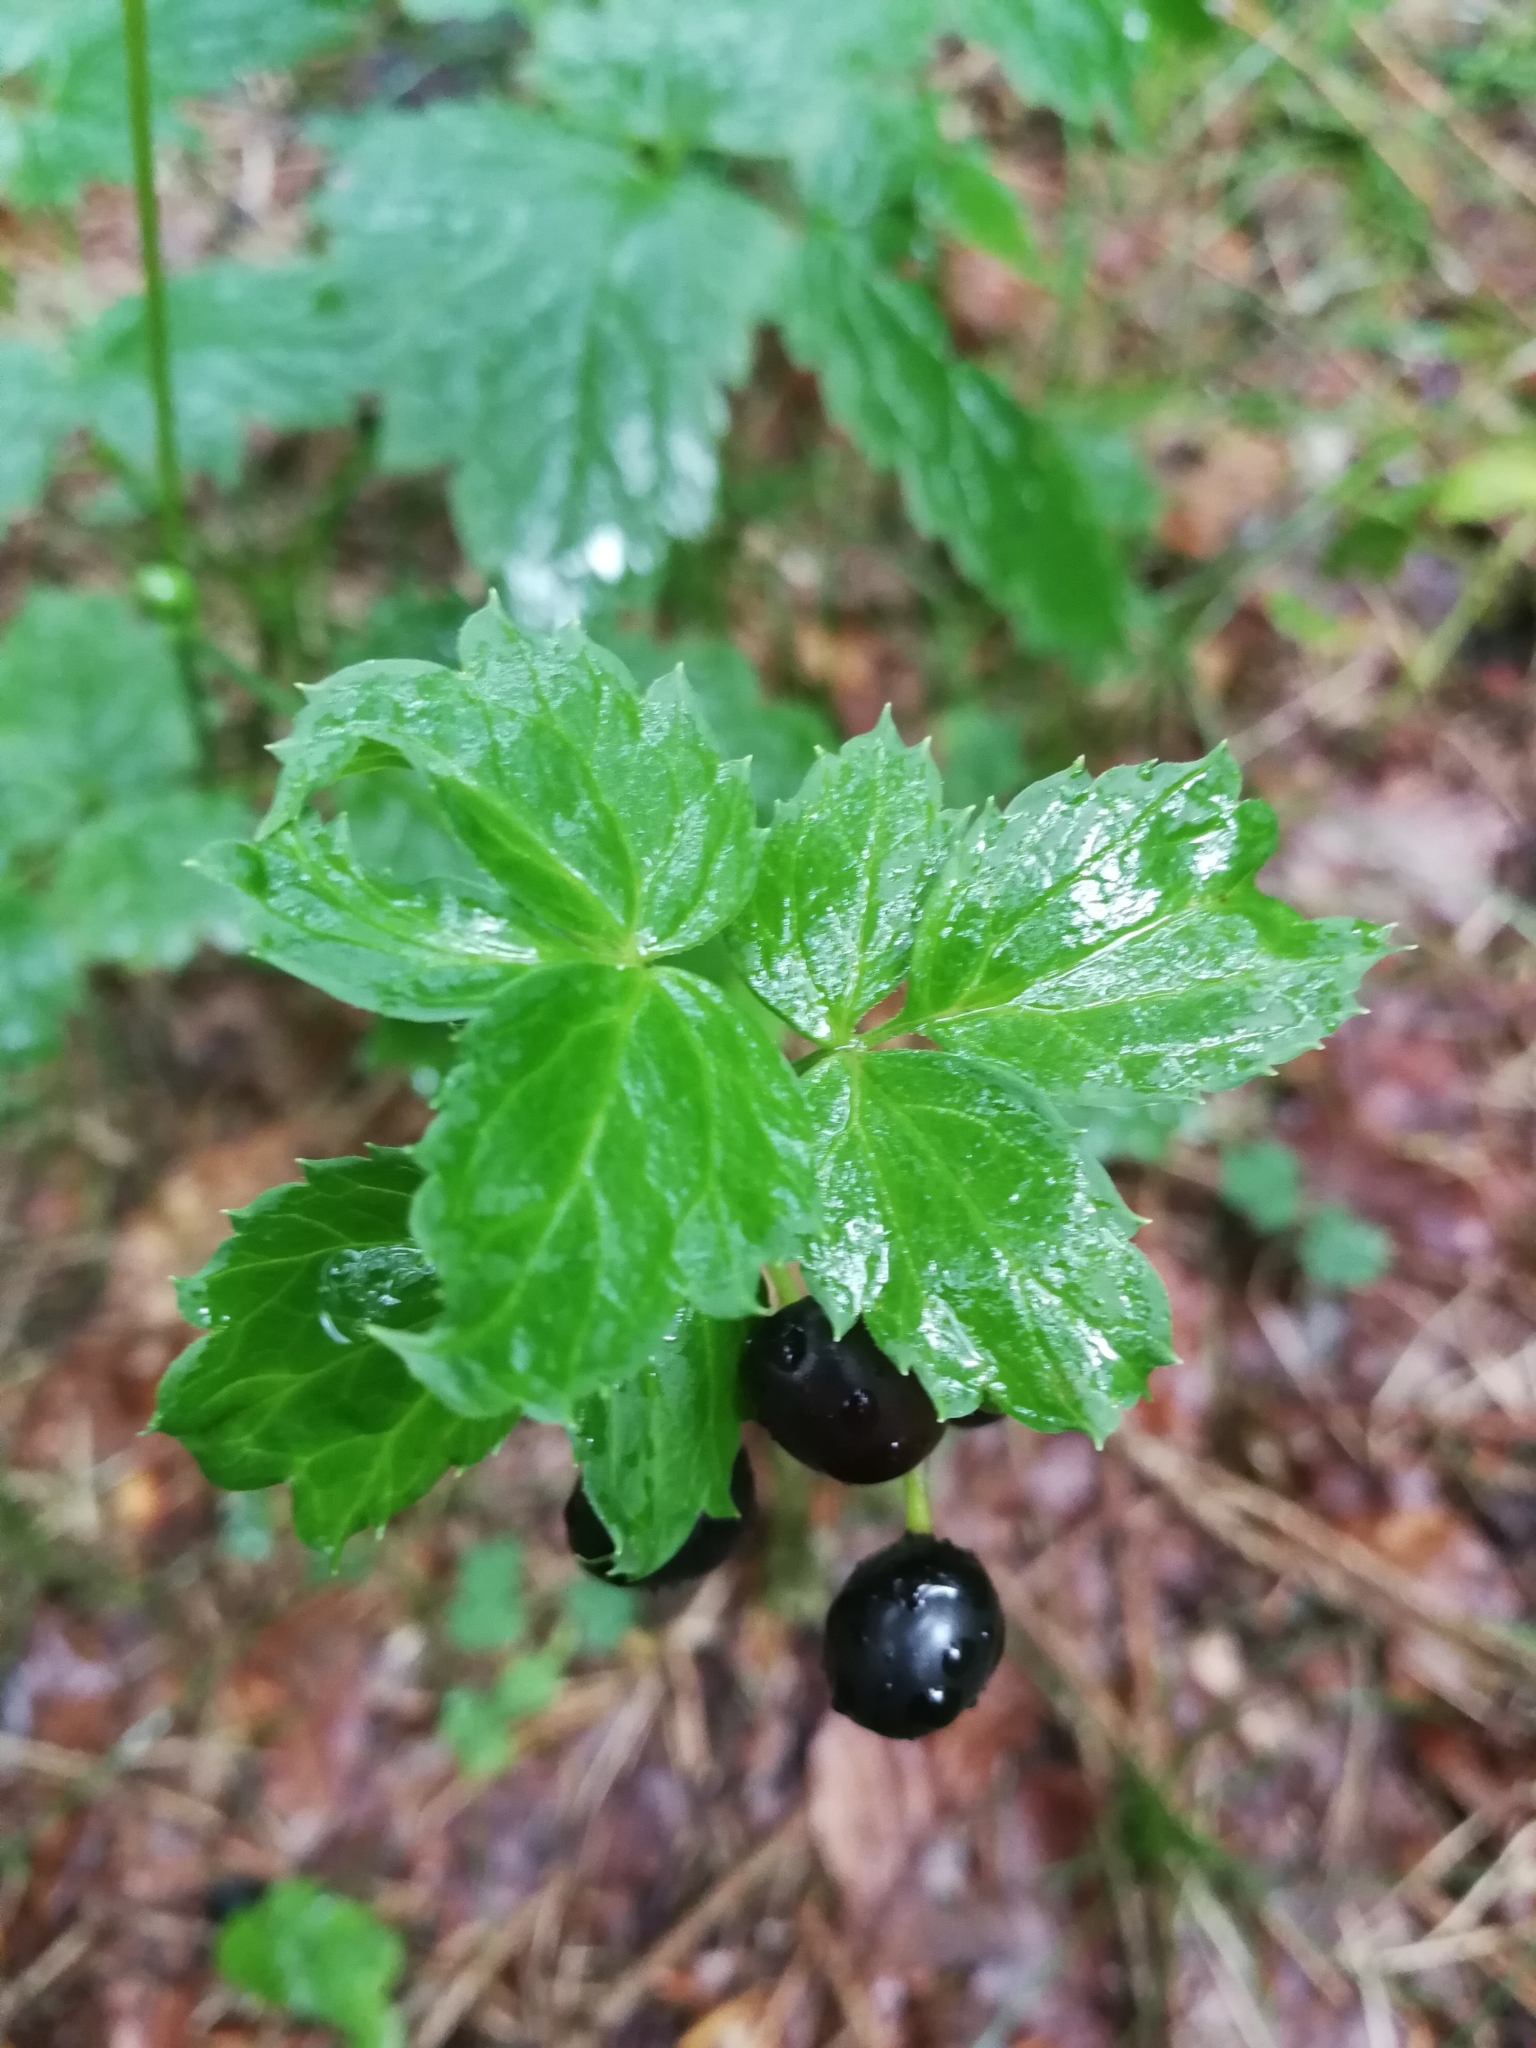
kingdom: Plantae
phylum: Tracheophyta
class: Magnoliopsida
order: Ranunculales
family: Ranunculaceae
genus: Actaea
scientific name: Actaea spicata
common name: Baneberry
